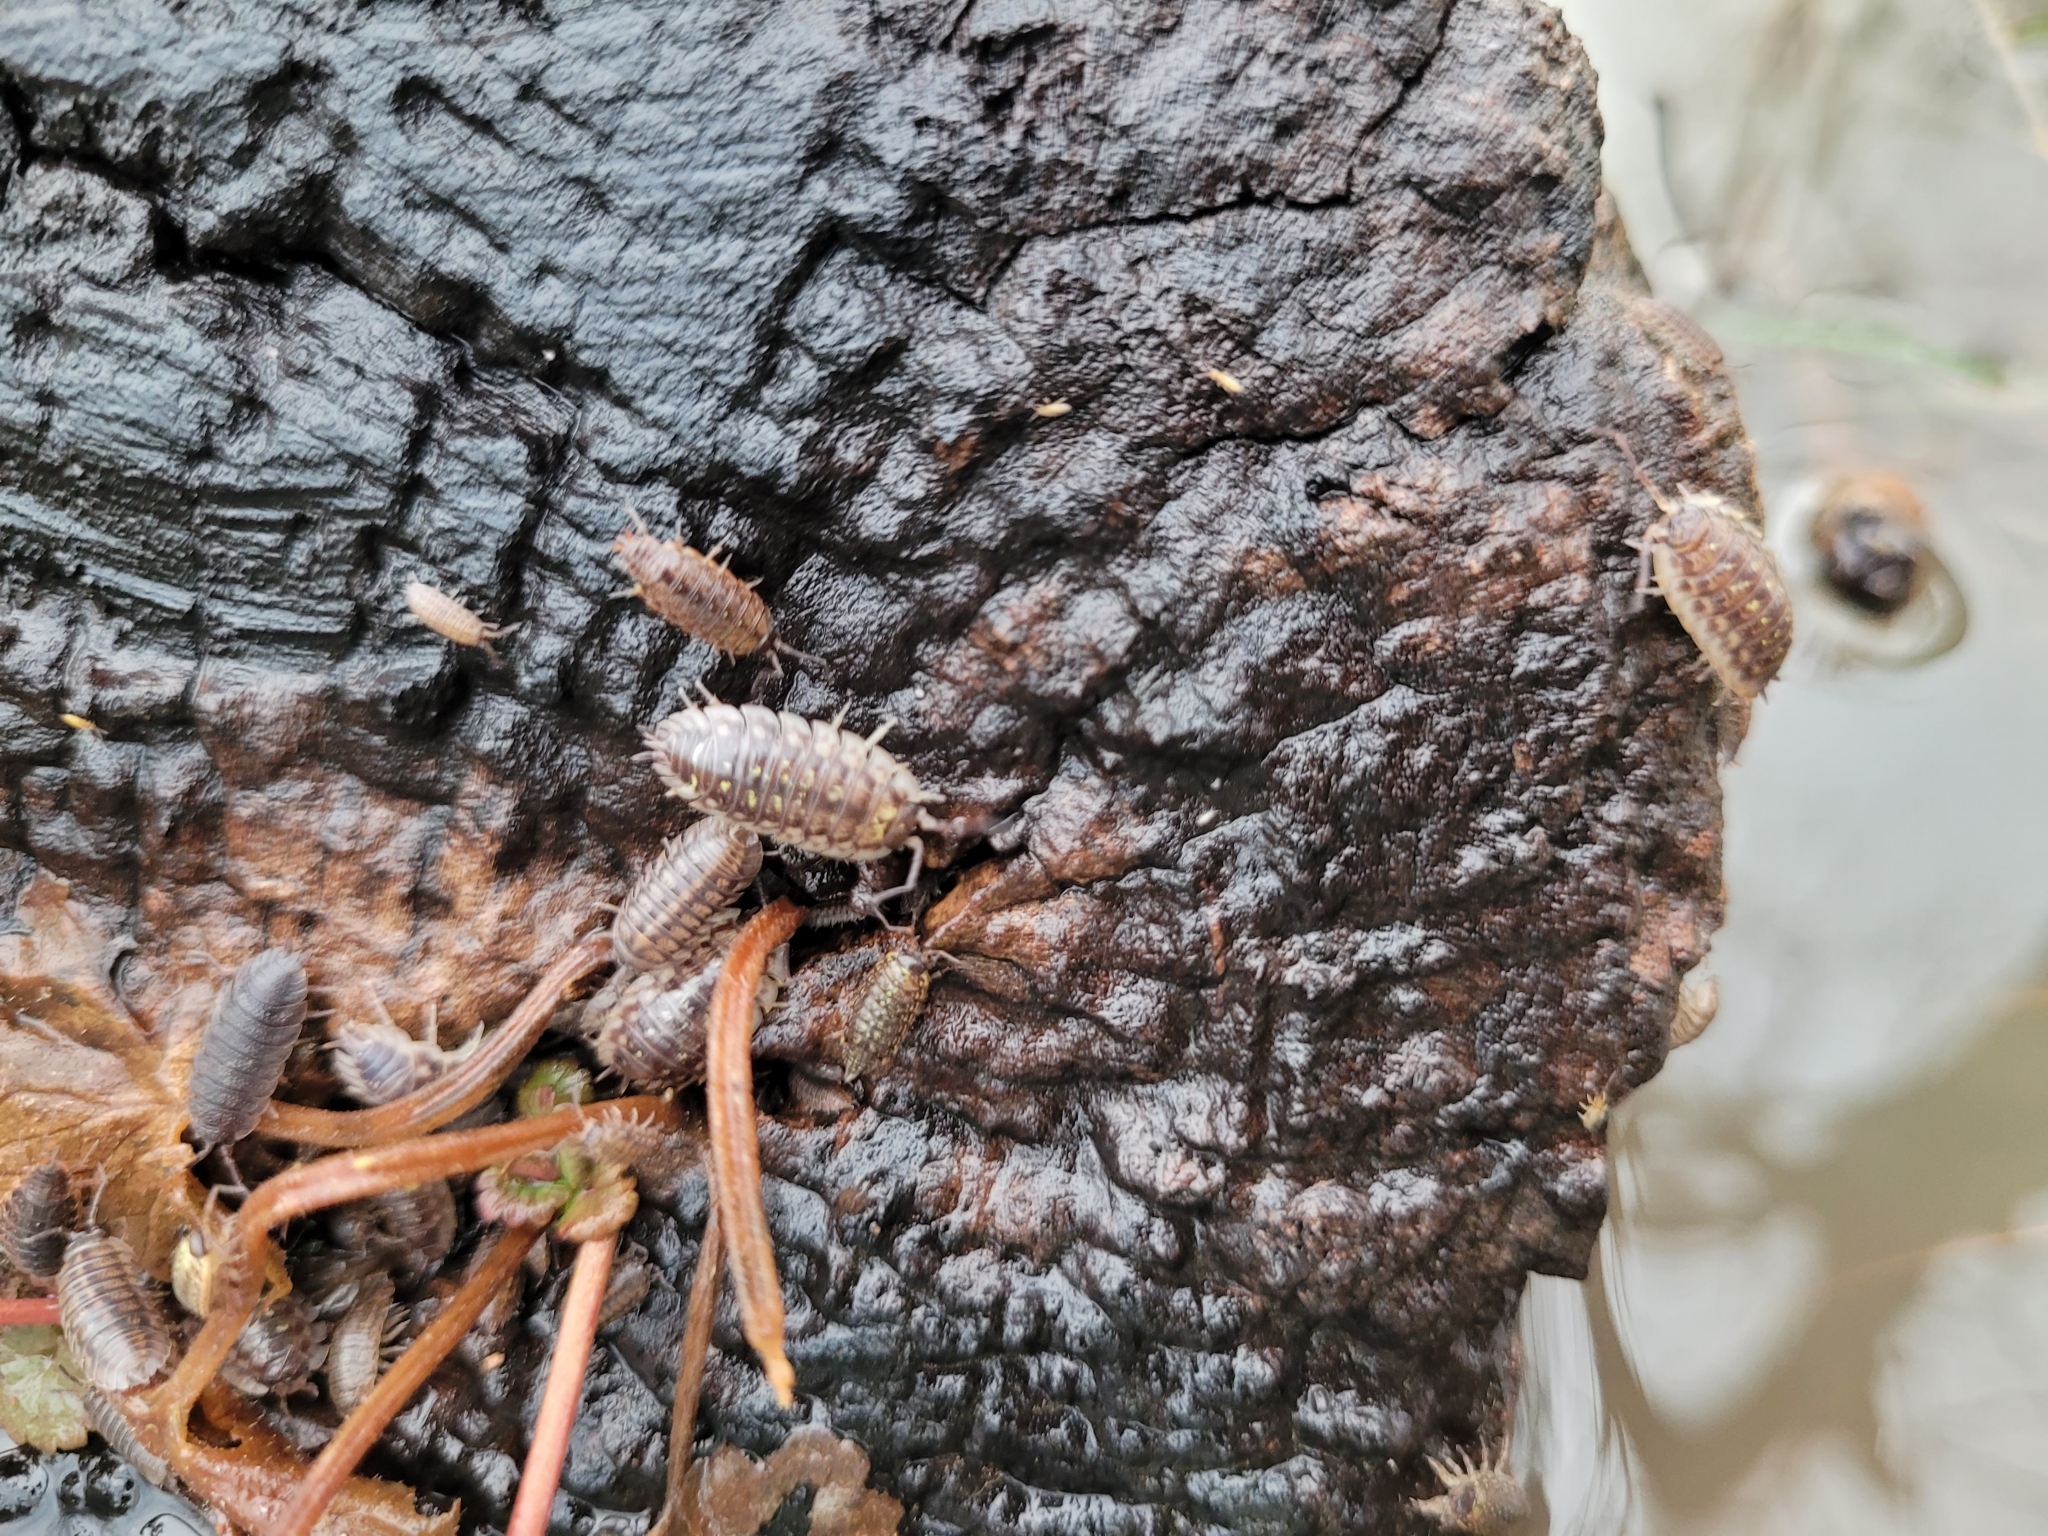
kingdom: Animalia
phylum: Arthropoda
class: Malacostraca
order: Isopoda
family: Oniscidae
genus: Oniscus
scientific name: Oniscus asellus
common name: Common shiny woodlouse
